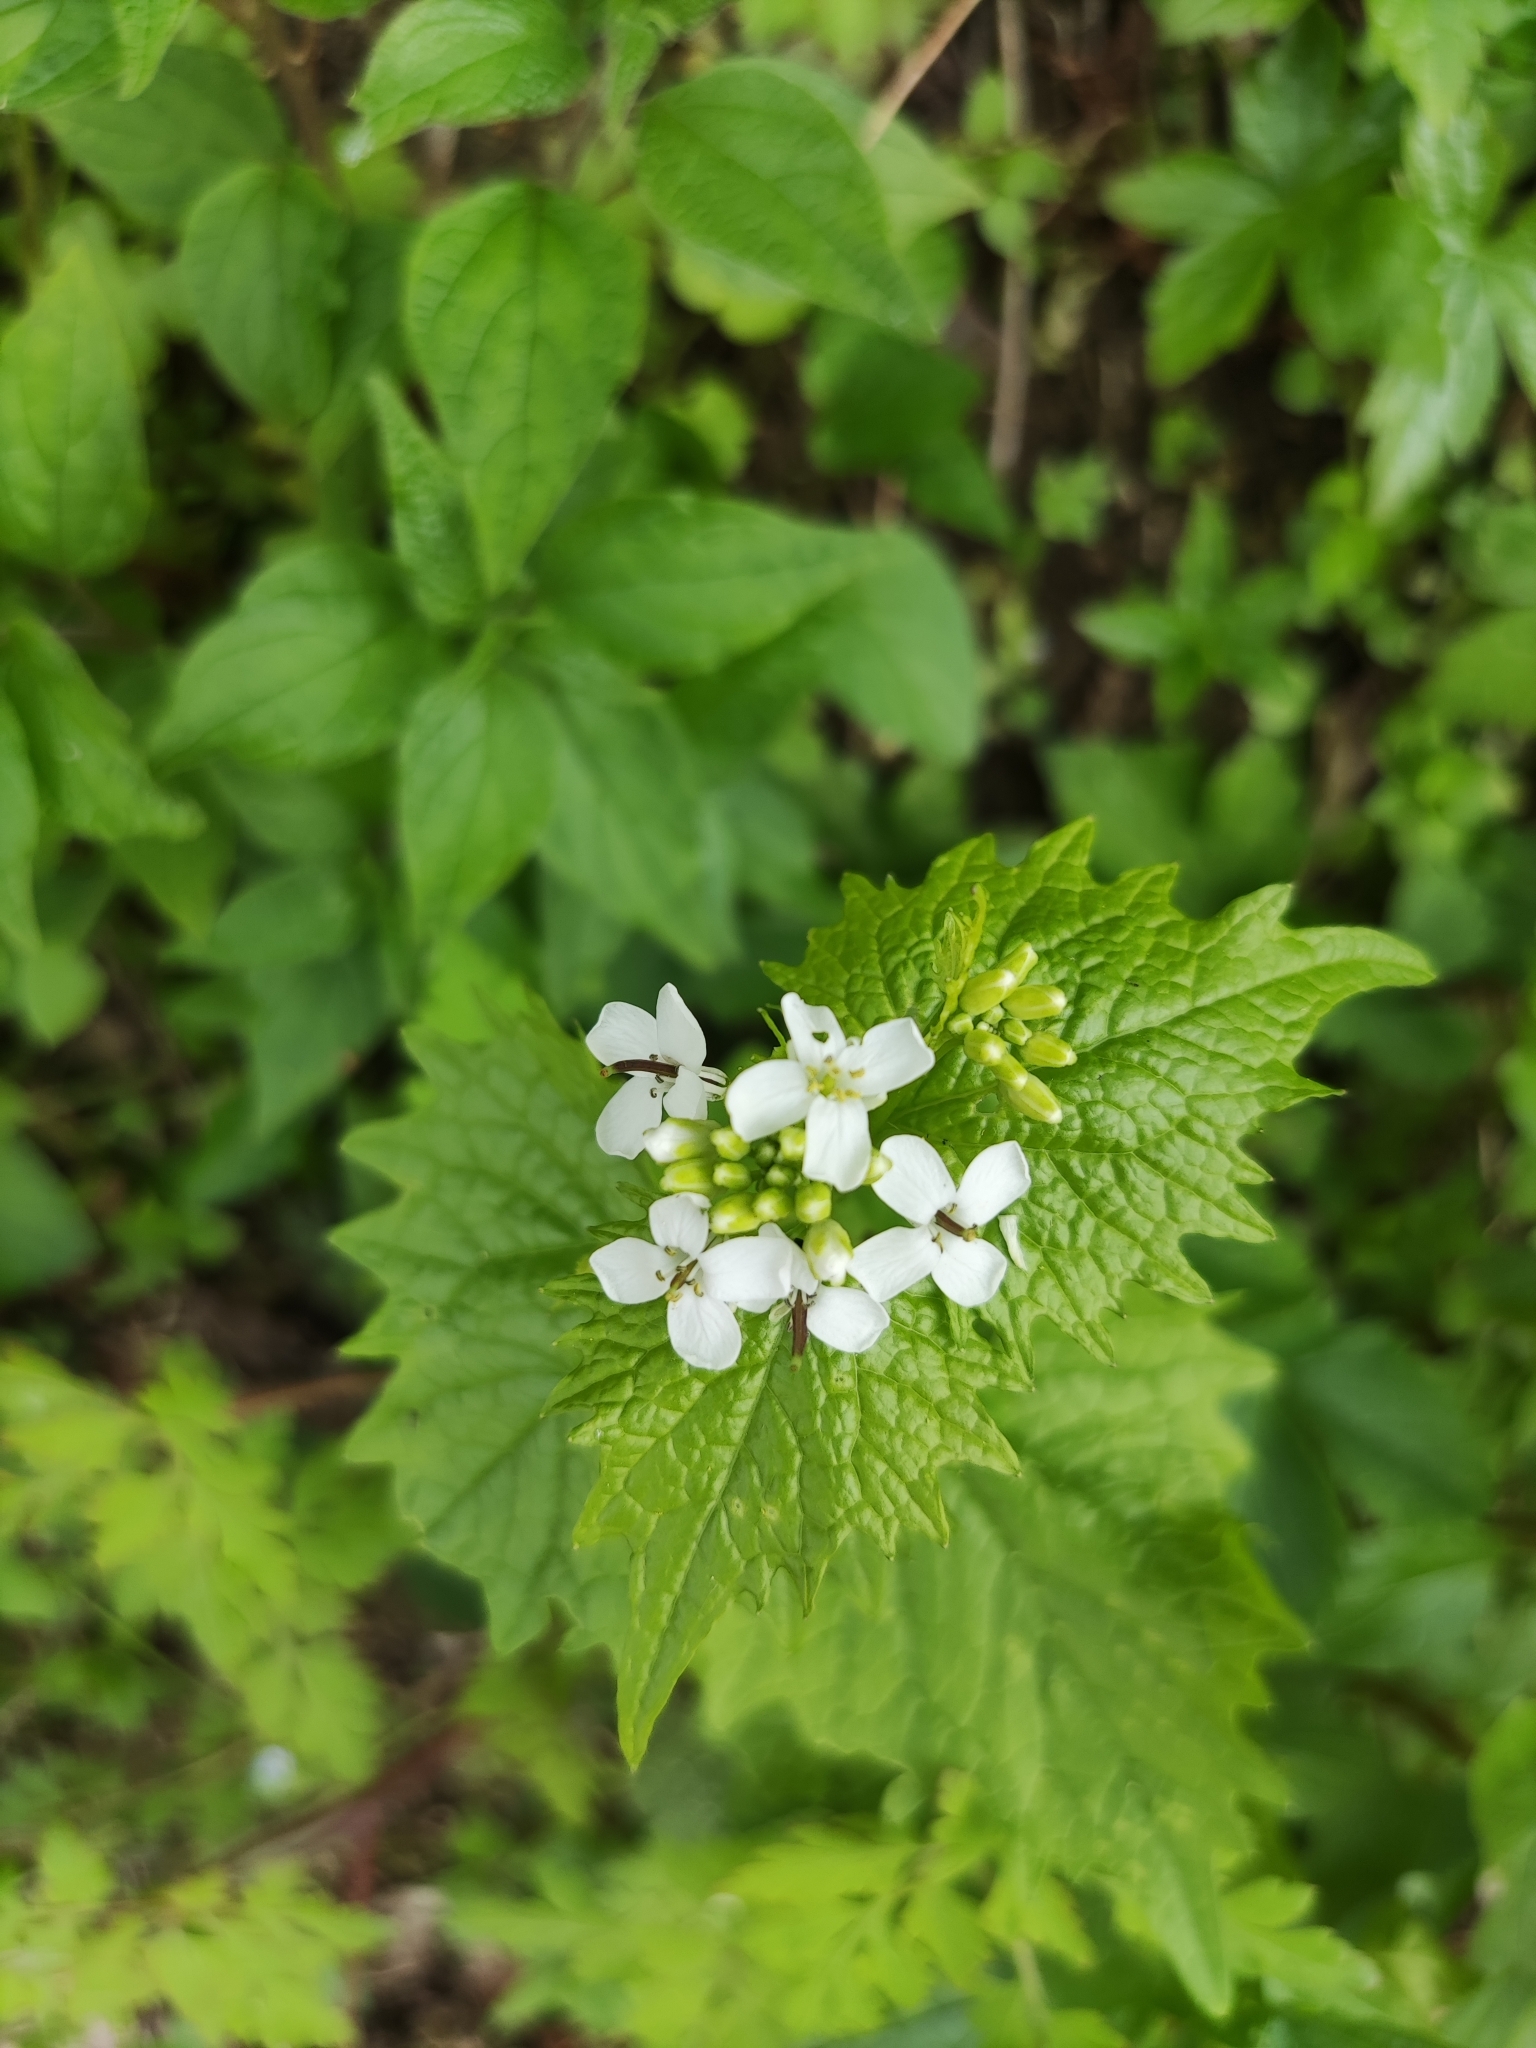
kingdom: Plantae
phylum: Tracheophyta
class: Magnoliopsida
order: Brassicales
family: Brassicaceae
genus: Alliaria
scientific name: Alliaria petiolata
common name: Garlic mustard
